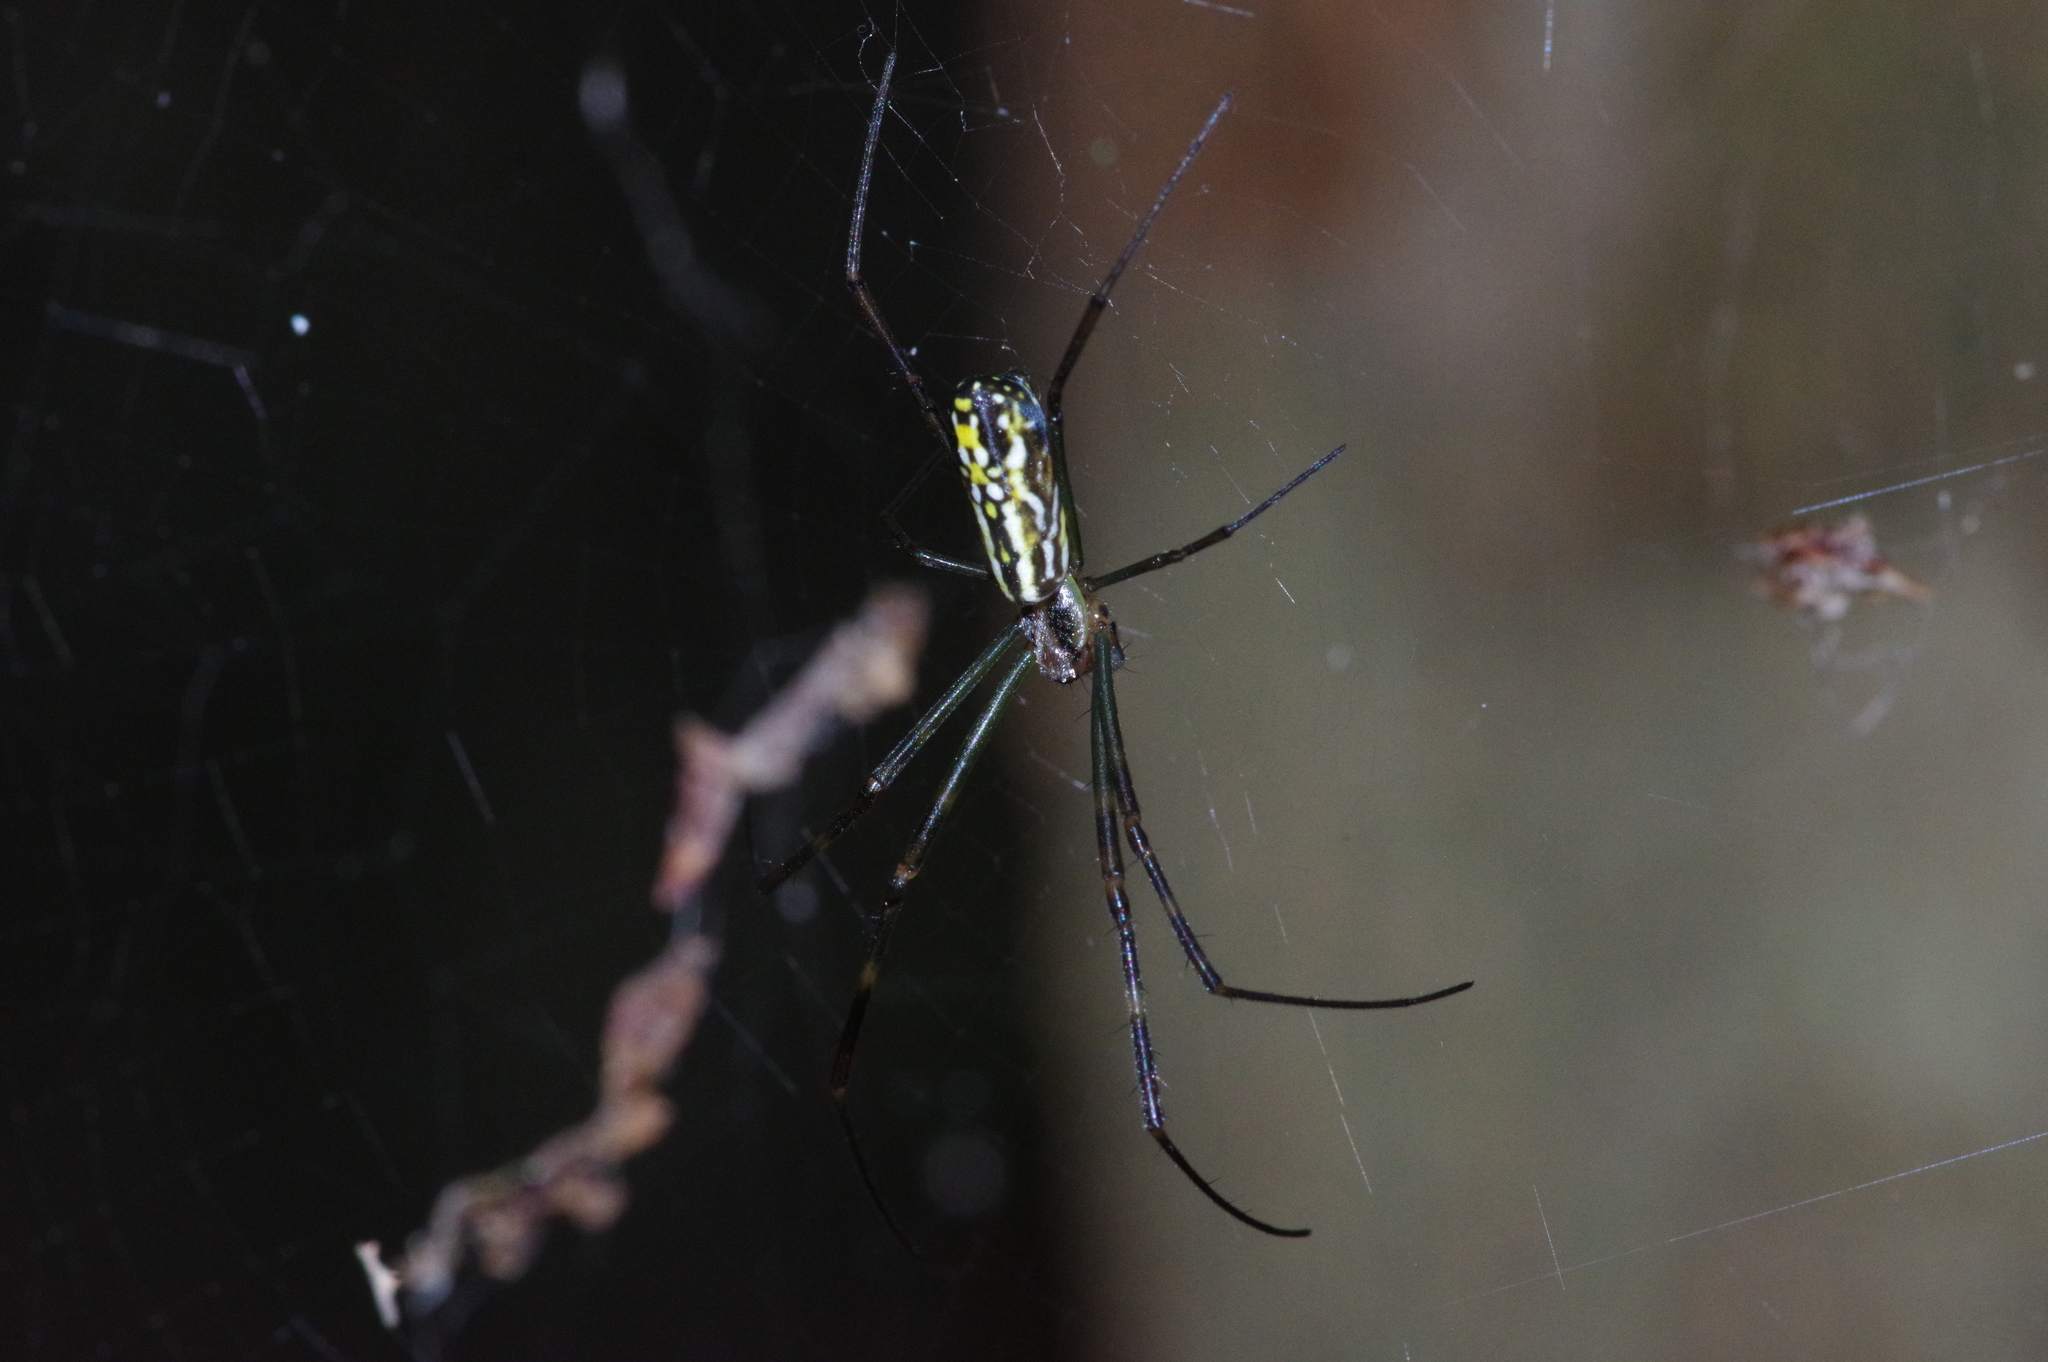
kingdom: Animalia
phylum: Arthropoda
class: Arachnida
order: Araneae
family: Araneidae
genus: Trichonephila
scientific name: Trichonephila clavata
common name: Jorō spider
